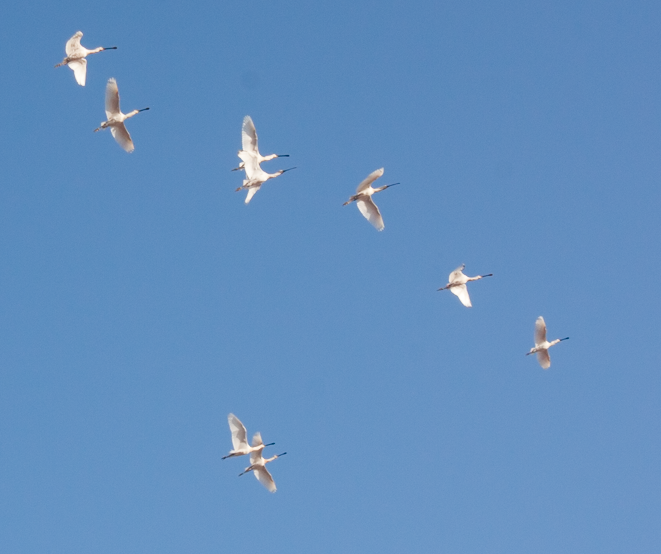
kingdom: Animalia
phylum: Chordata
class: Aves
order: Pelecaniformes
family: Threskiornithidae
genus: Platalea
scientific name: Platalea leucorodia
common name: Eurasian spoonbill
